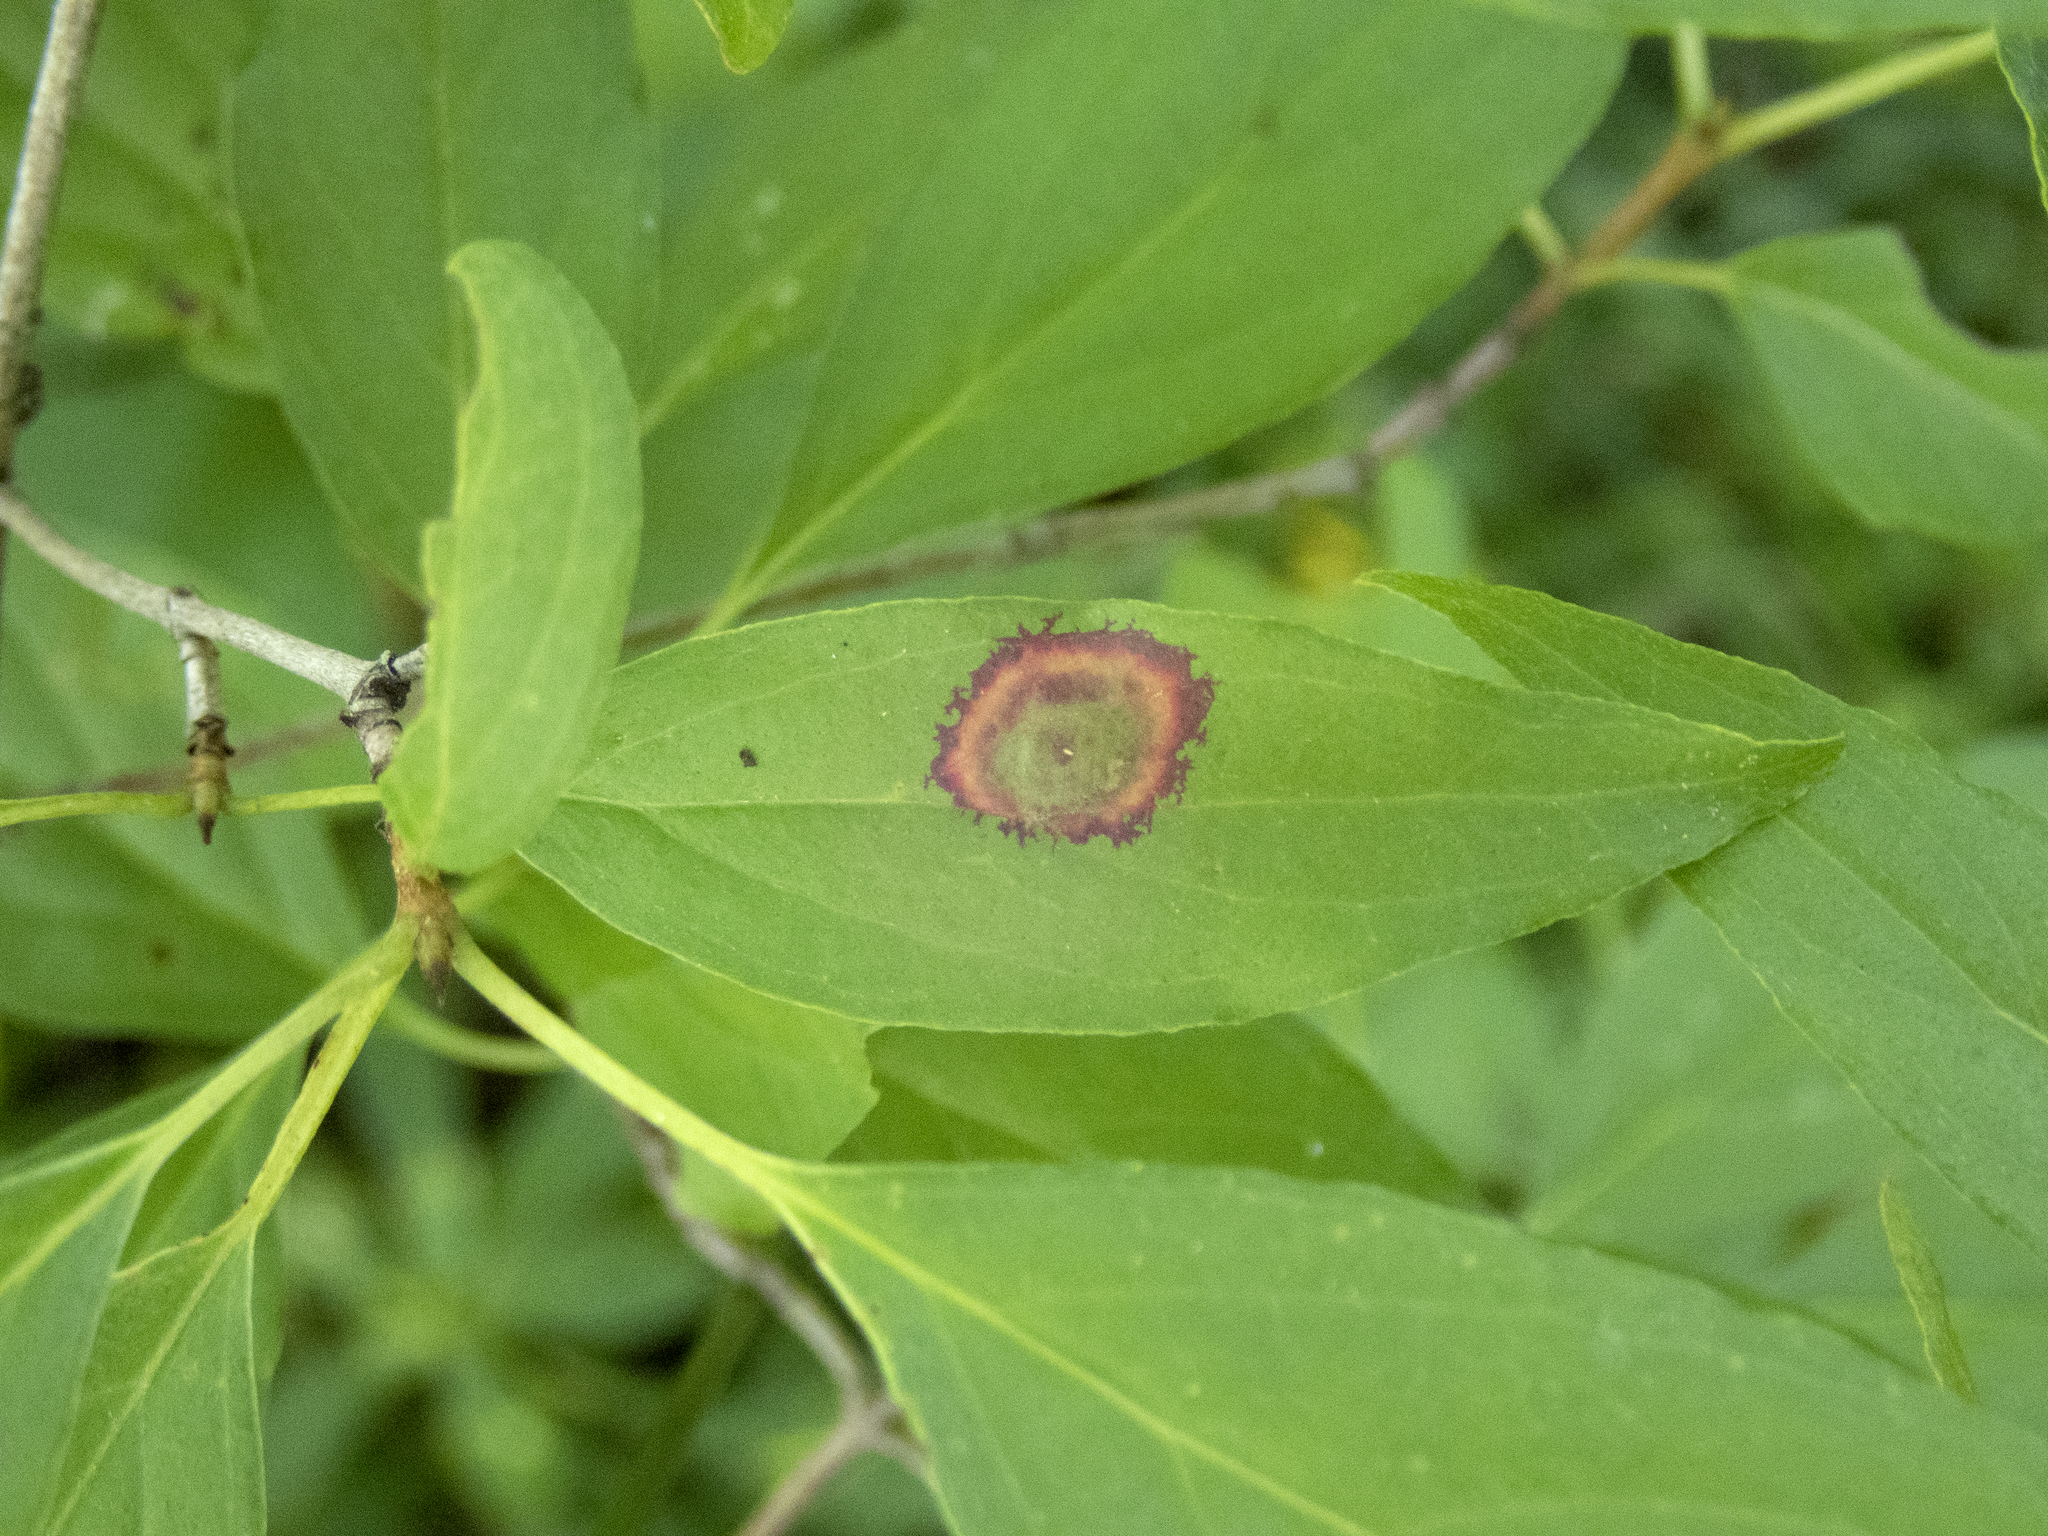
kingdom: Animalia
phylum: Arthropoda
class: Insecta
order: Diptera
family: Cecidomyiidae
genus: Parallelodiplosis
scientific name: Parallelodiplosis subtruncata
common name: Dogwood eyespot gall midge
